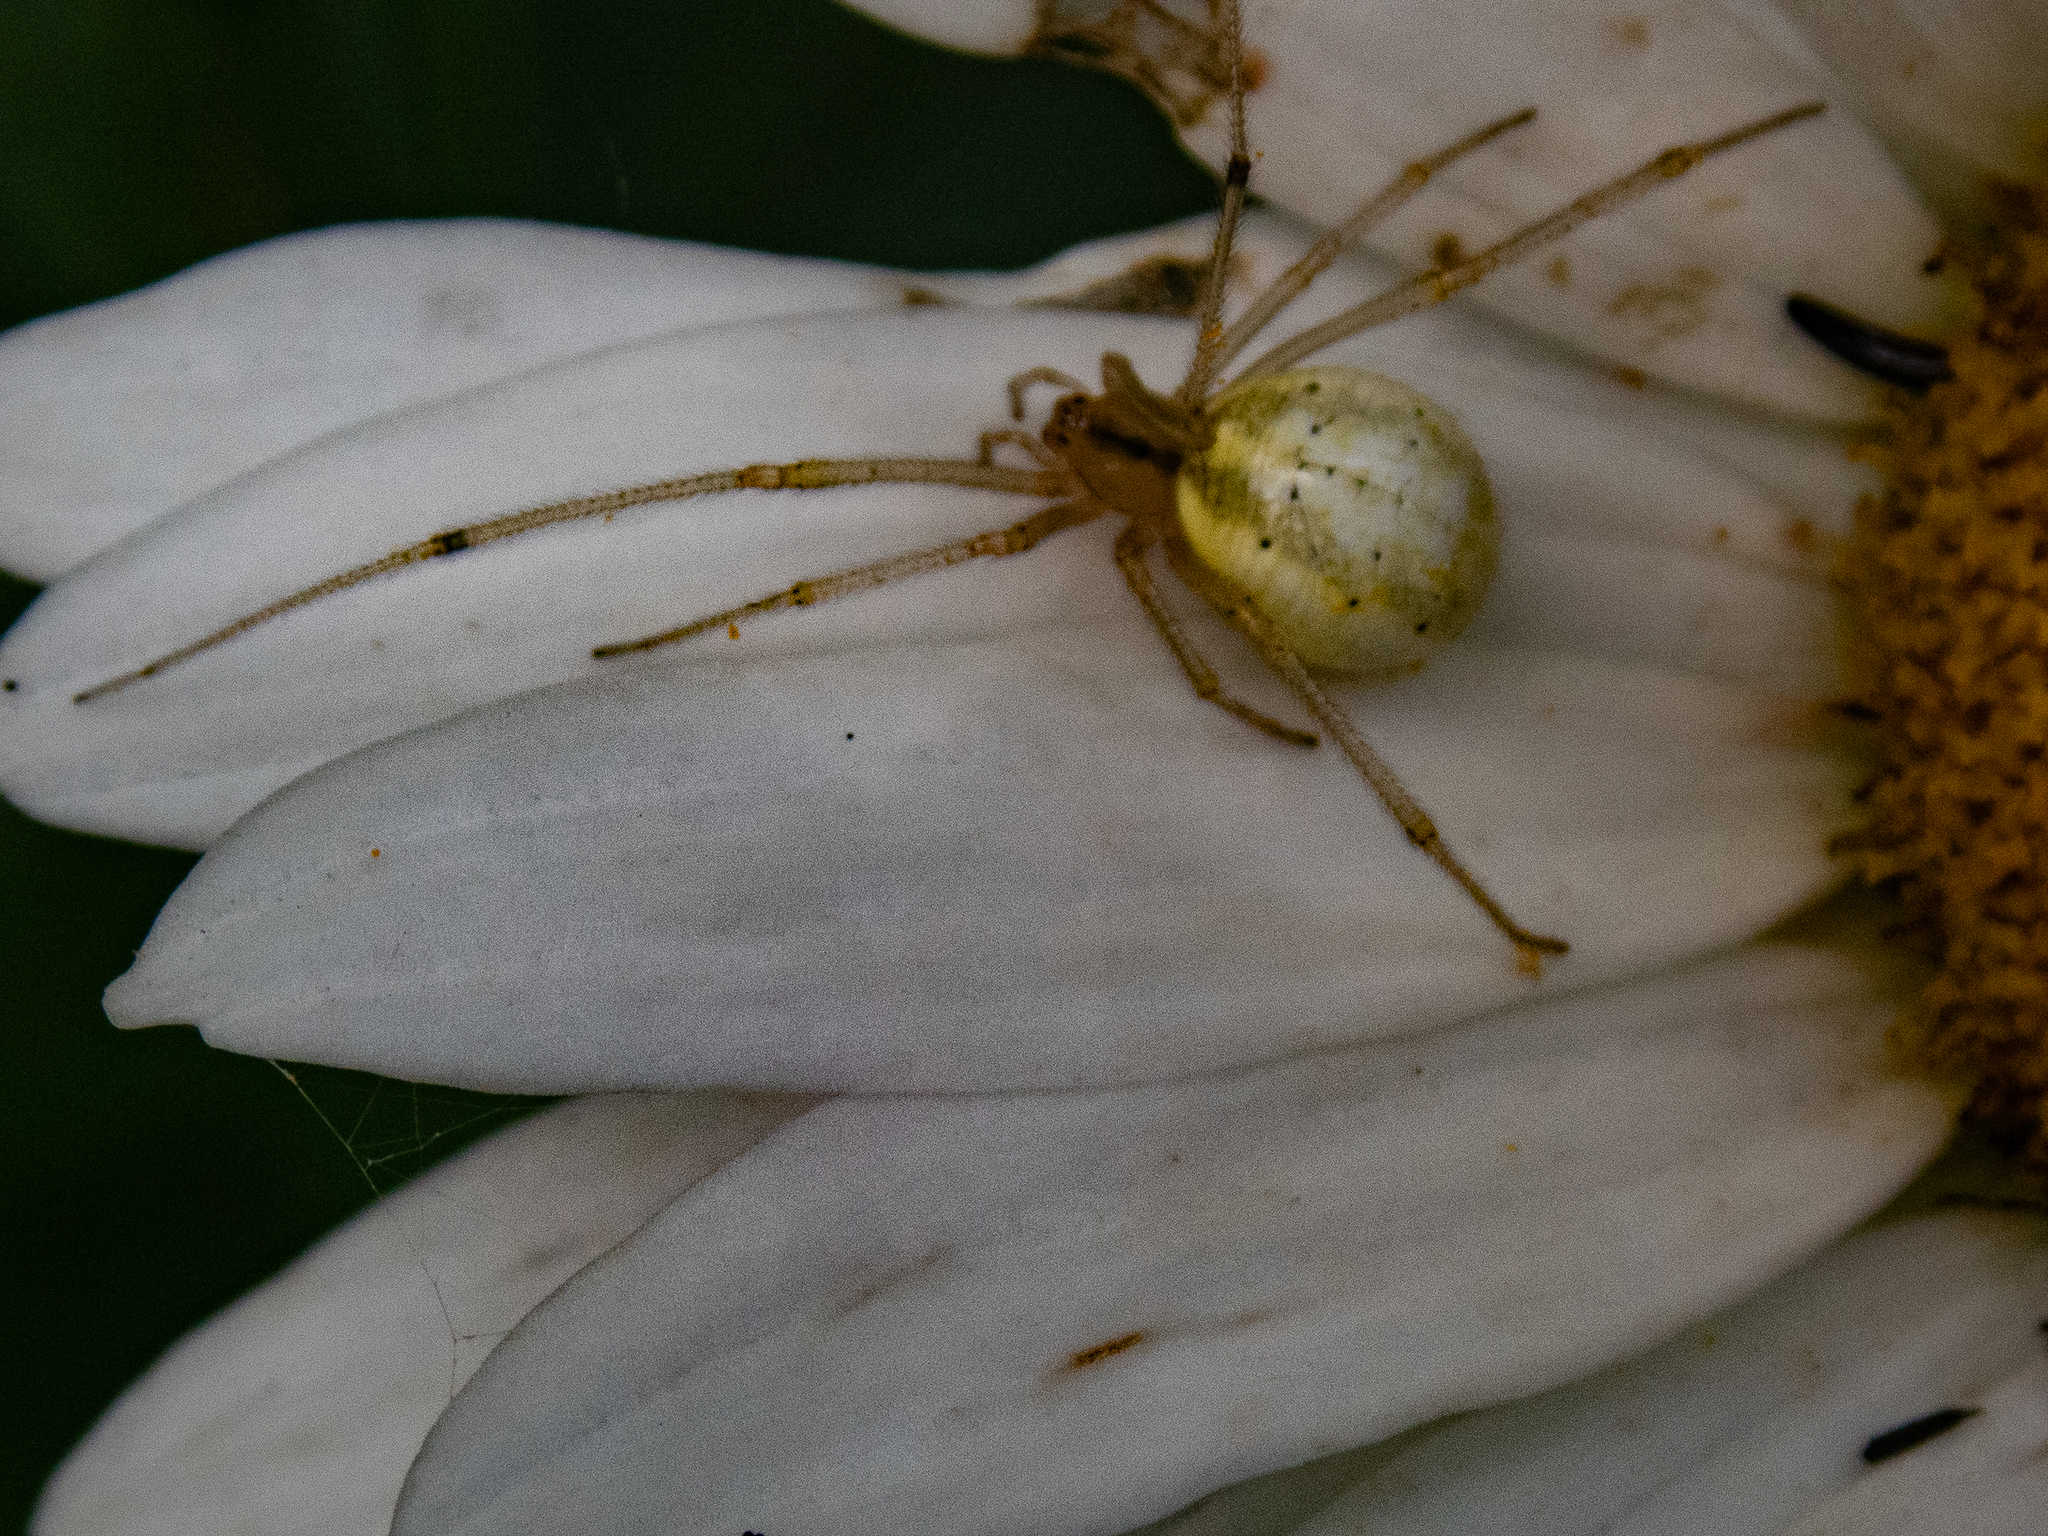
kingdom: Animalia
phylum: Arthropoda
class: Arachnida
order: Araneae
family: Theridiidae
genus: Enoplognatha
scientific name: Enoplognatha ovata
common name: Common candy-striped spider
